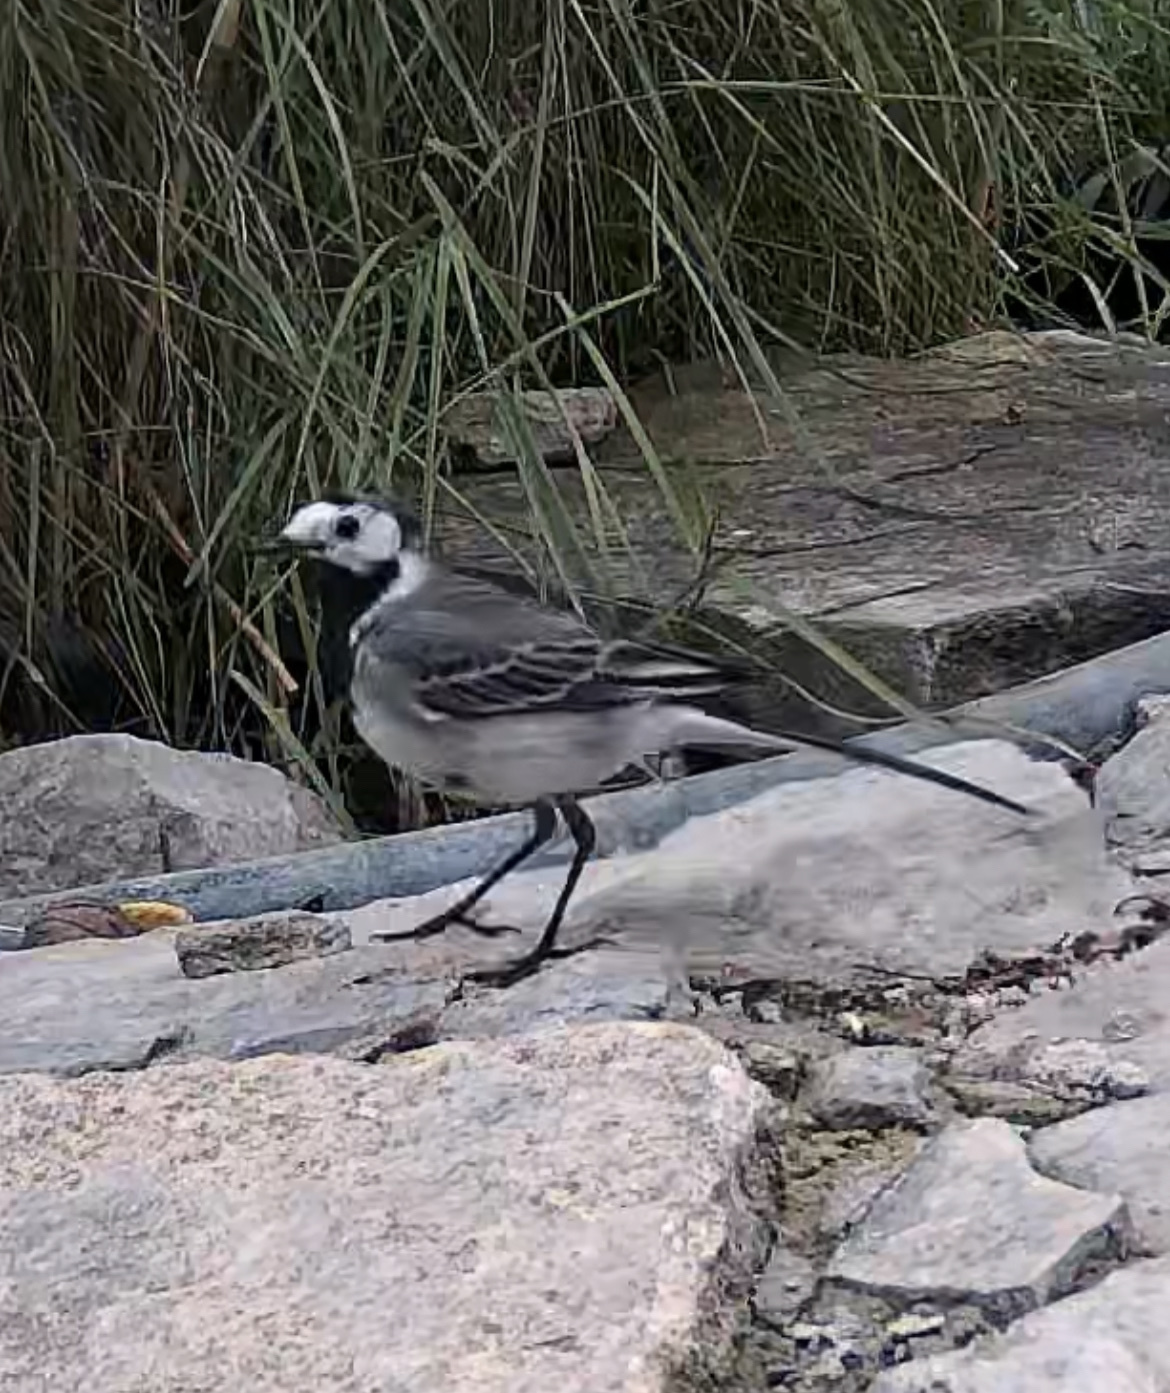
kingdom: Animalia
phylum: Chordata
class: Aves
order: Passeriformes
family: Motacillidae
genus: Motacilla
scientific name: Motacilla alba
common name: White wagtail
